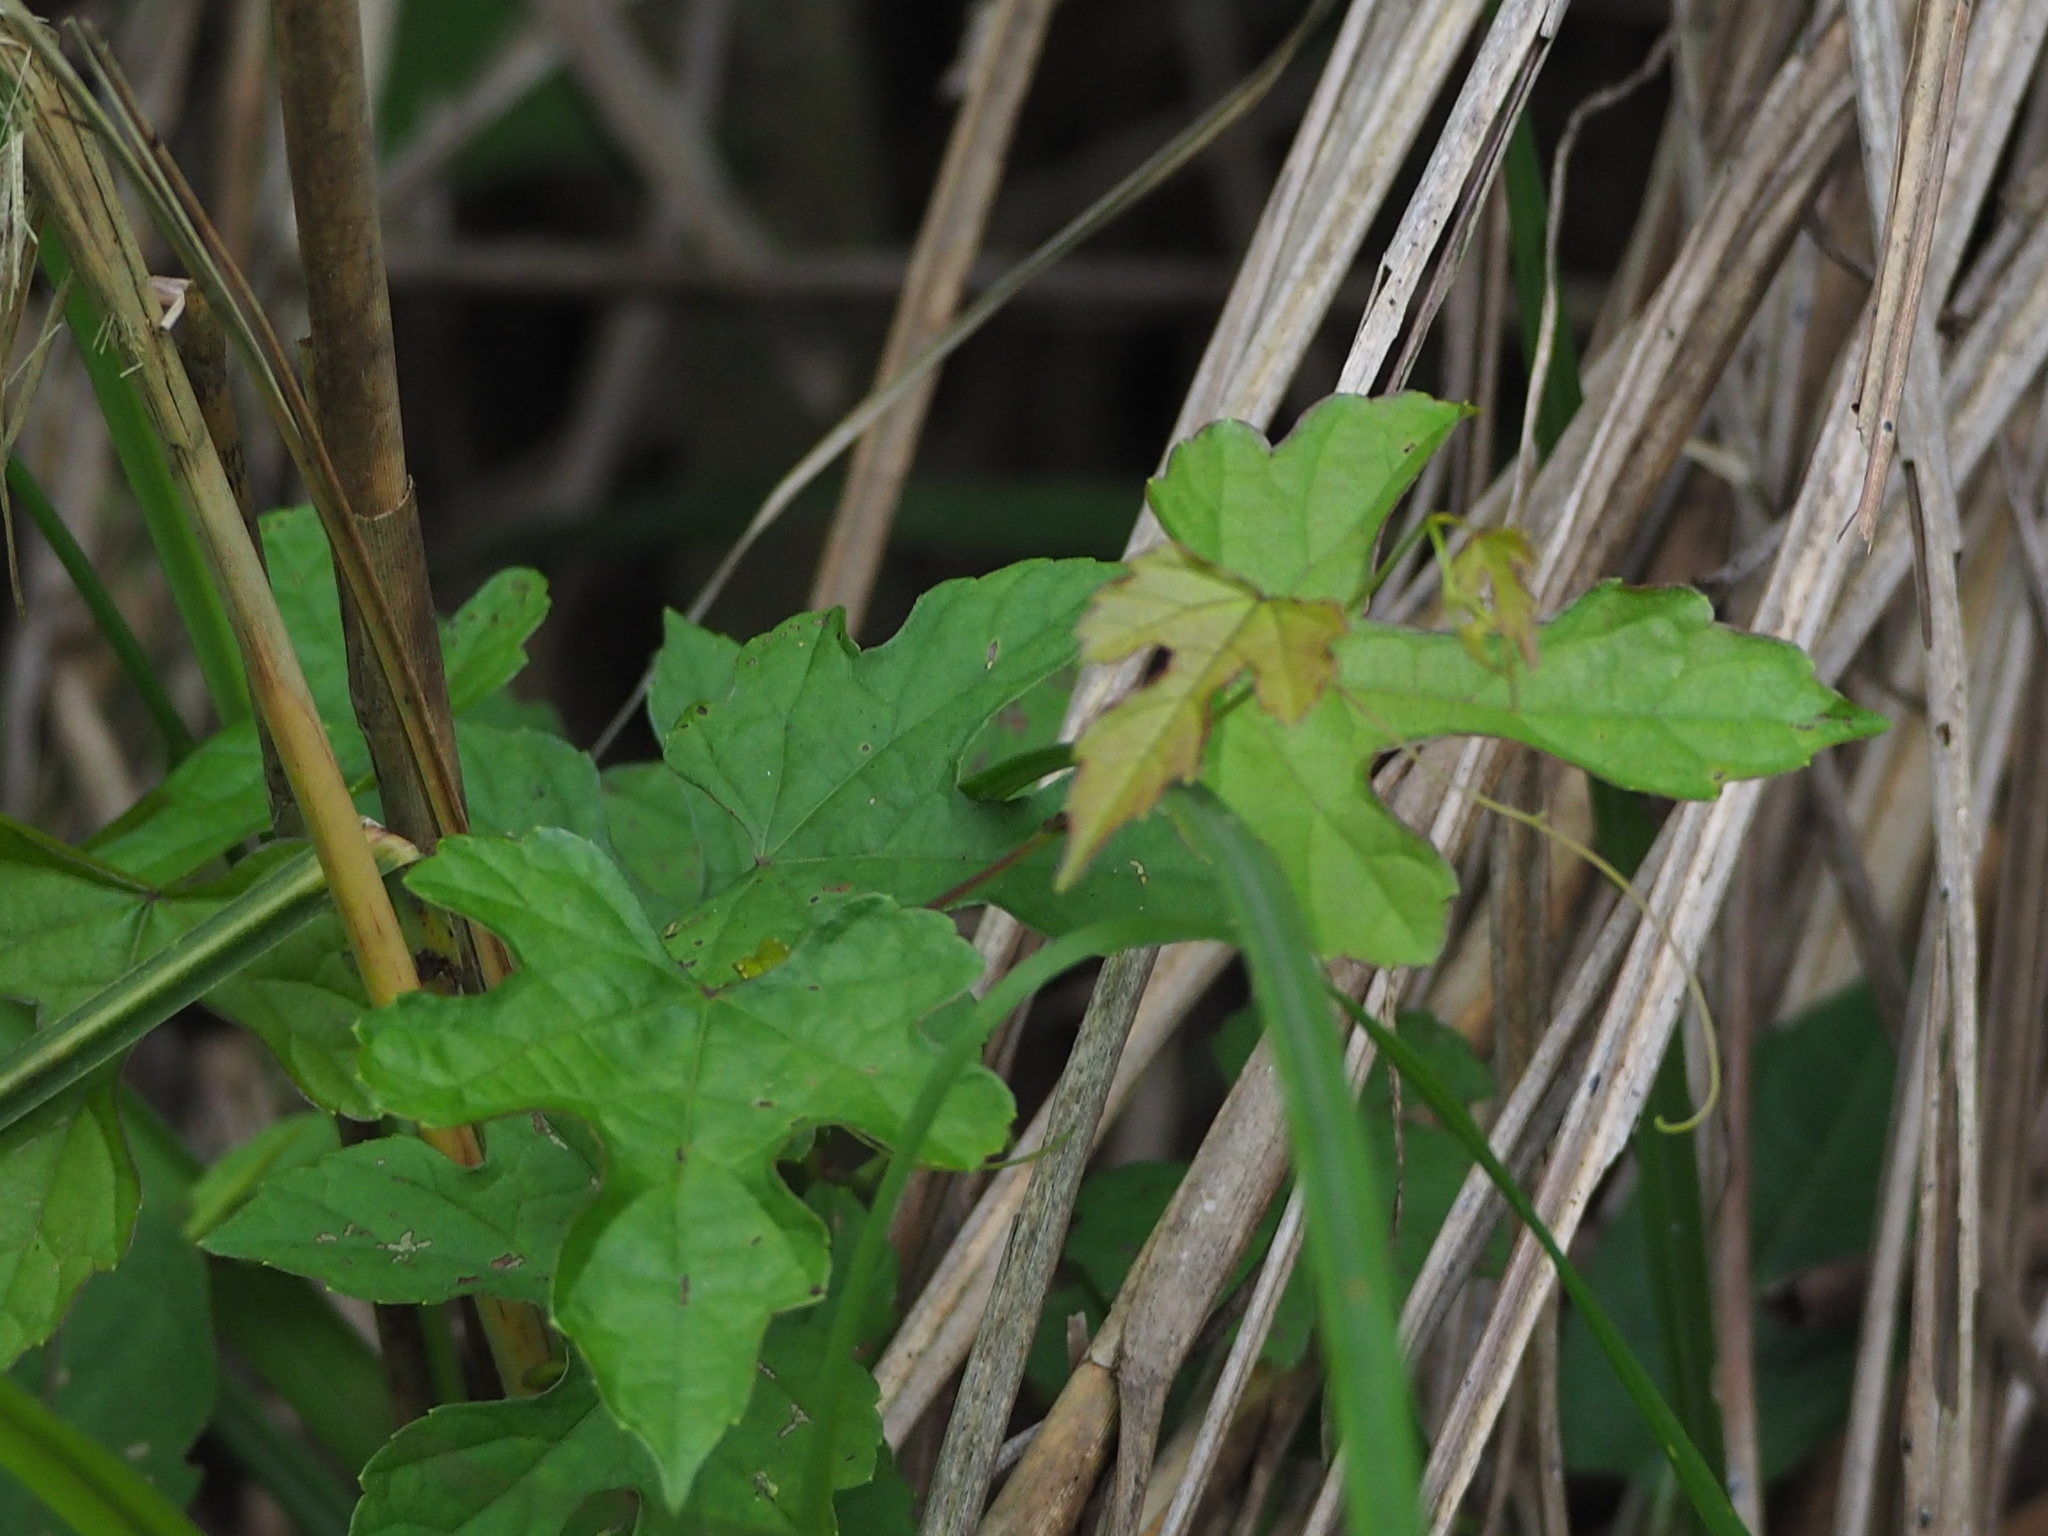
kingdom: Plantae
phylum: Tracheophyta
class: Magnoliopsida
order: Vitales
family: Vitaceae
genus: Ampelopsis
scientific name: Ampelopsis glandulosa
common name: Amur peppervine
